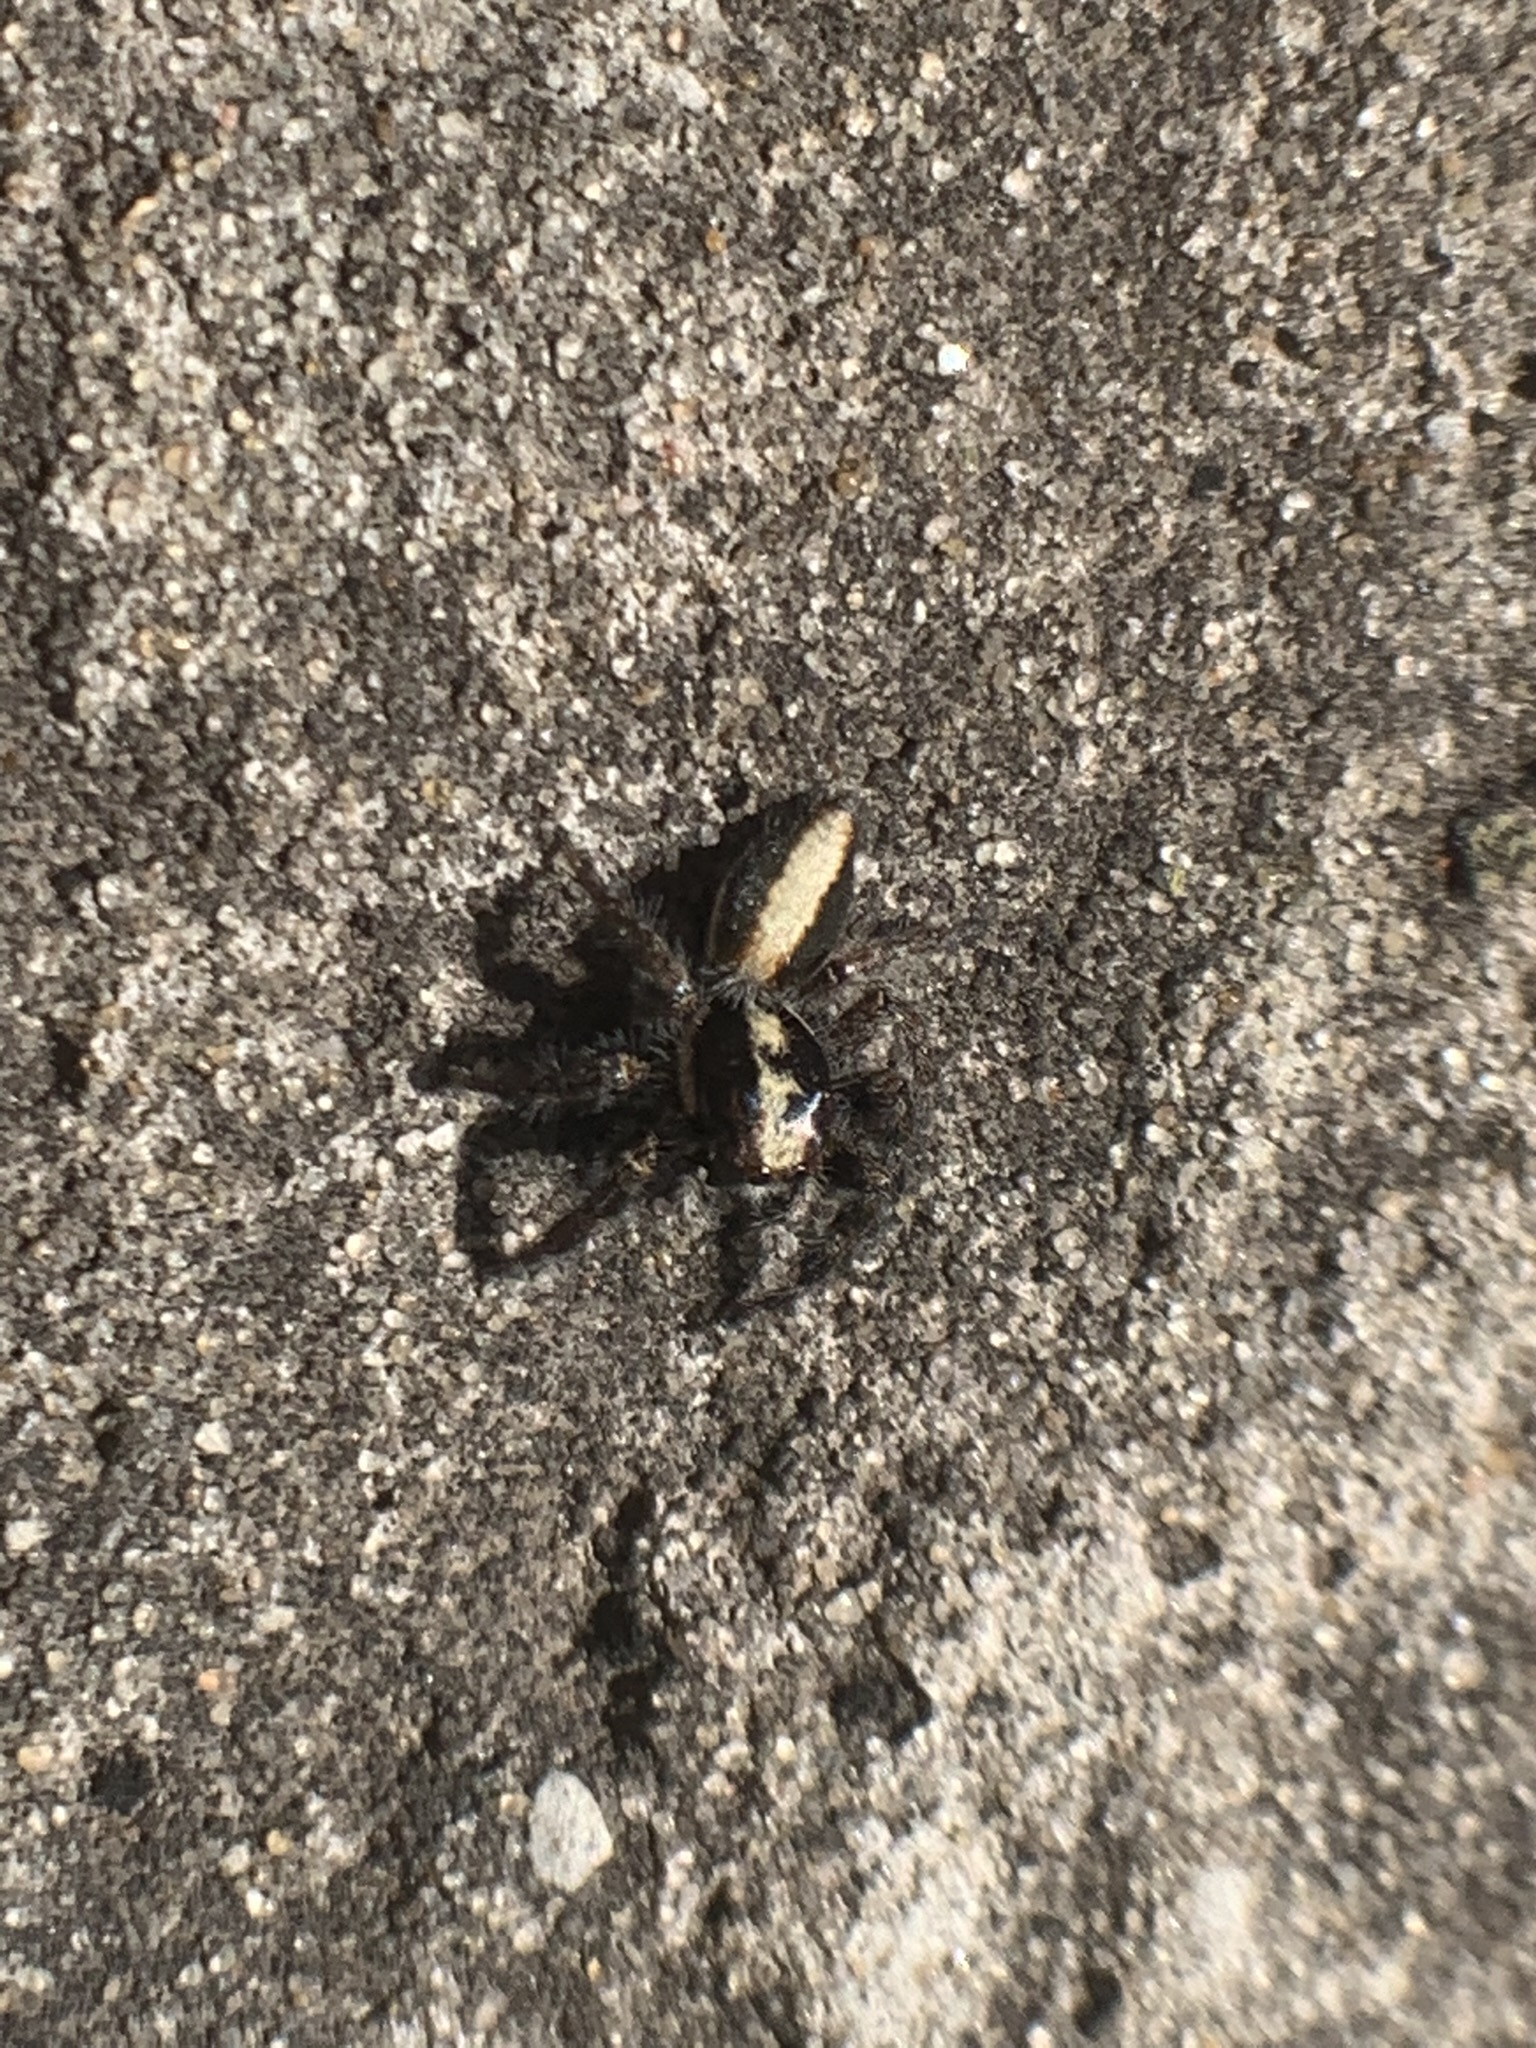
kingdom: Animalia
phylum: Arthropoda
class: Arachnida
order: Araneae
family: Salticidae
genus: Megafreya
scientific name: Megafreya sutrix
